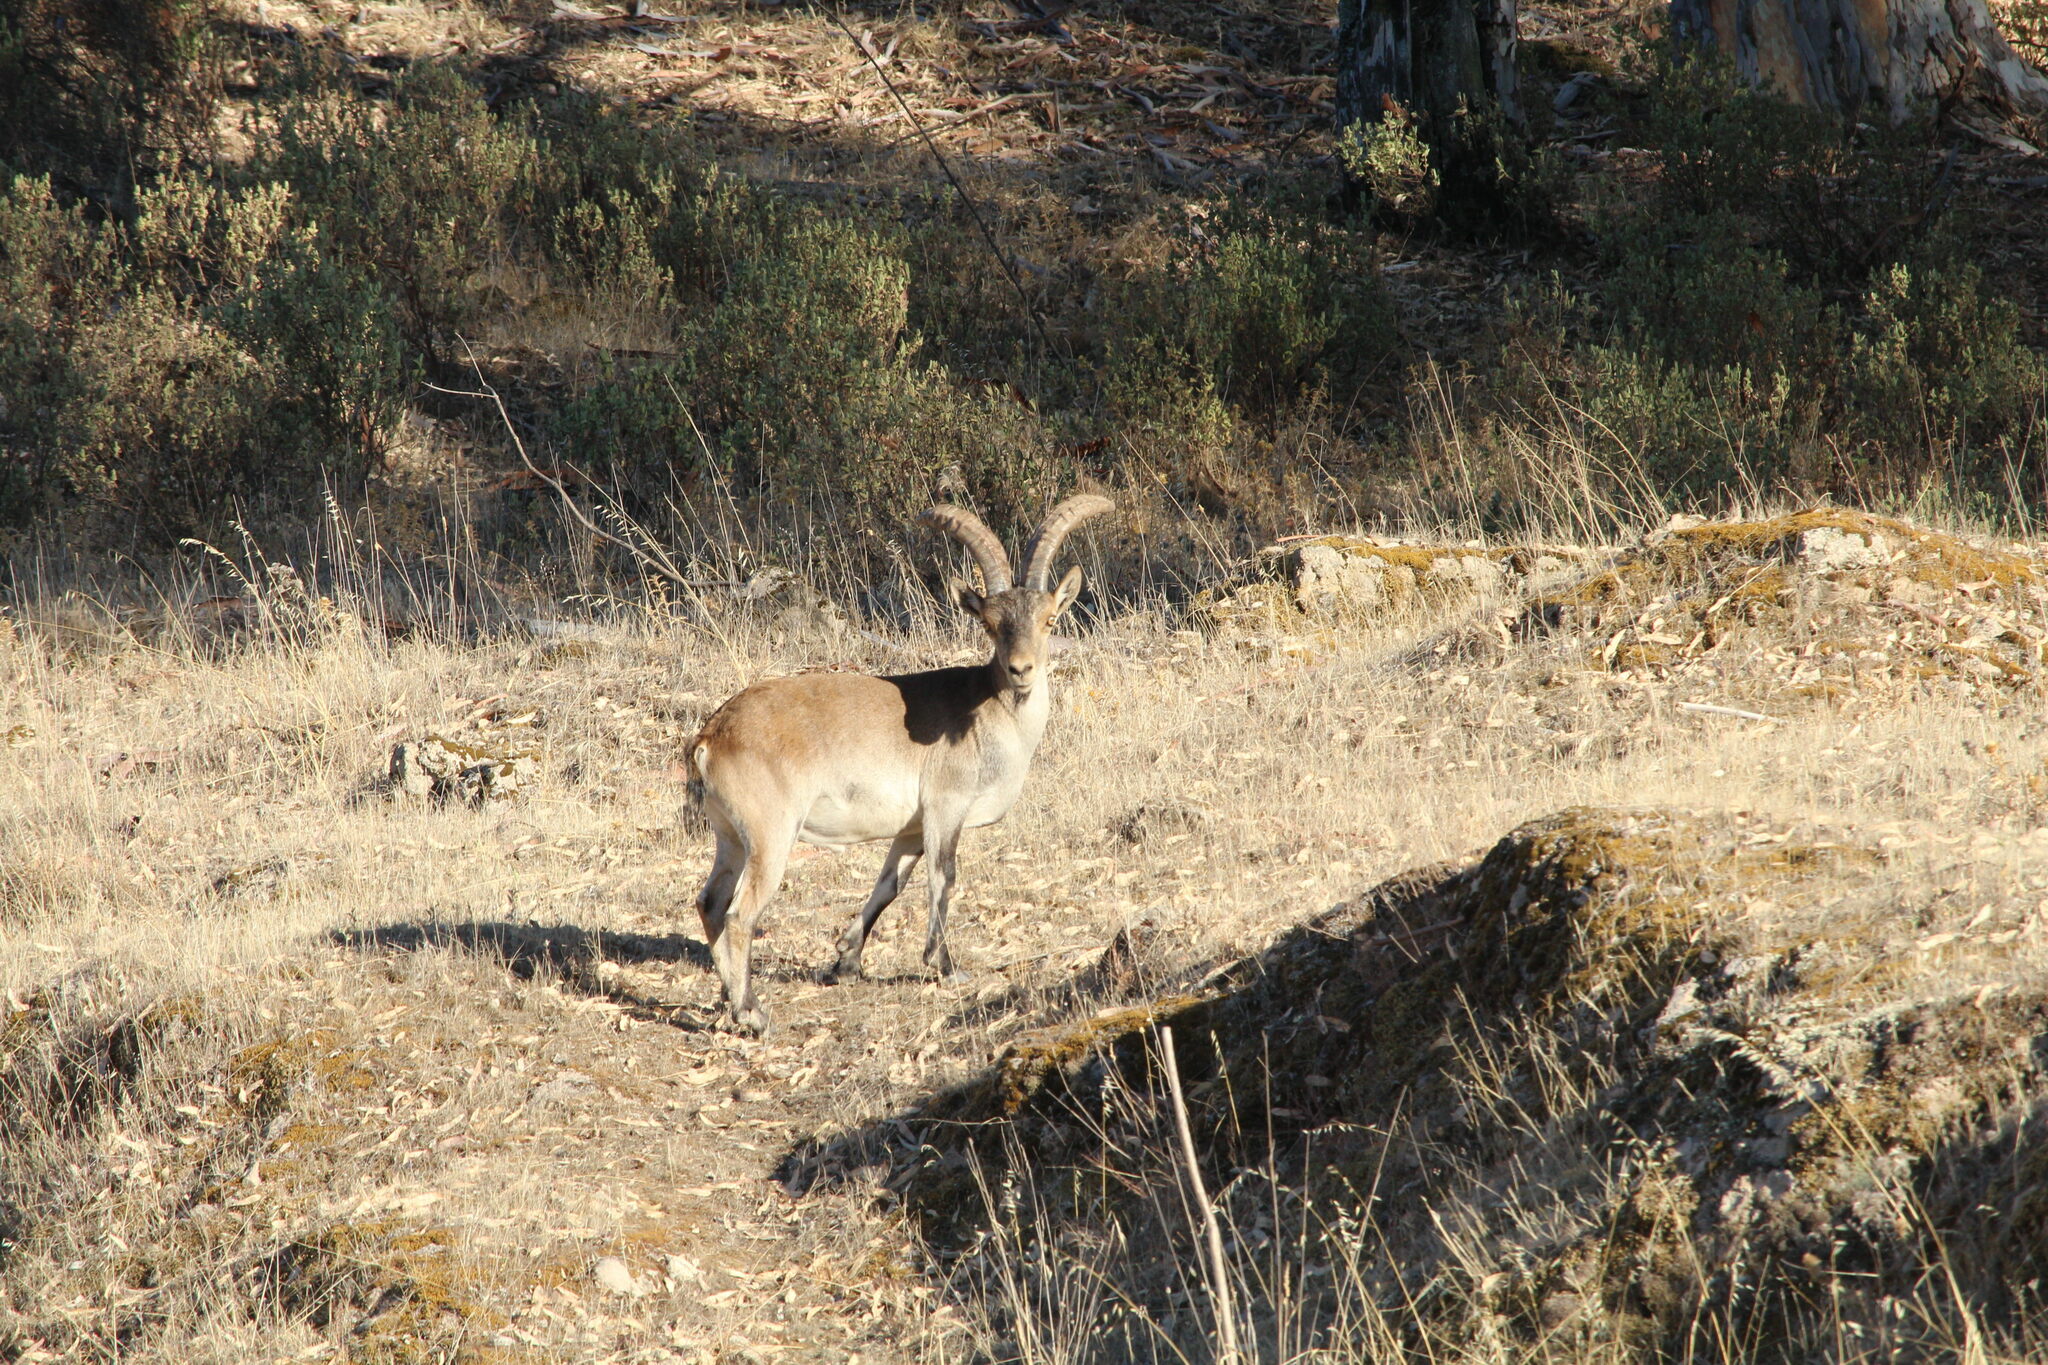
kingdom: Animalia
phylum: Chordata
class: Mammalia
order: Artiodactyla
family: Bovidae
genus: Capra
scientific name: Capra pyrenaica
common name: Spanish ibex
